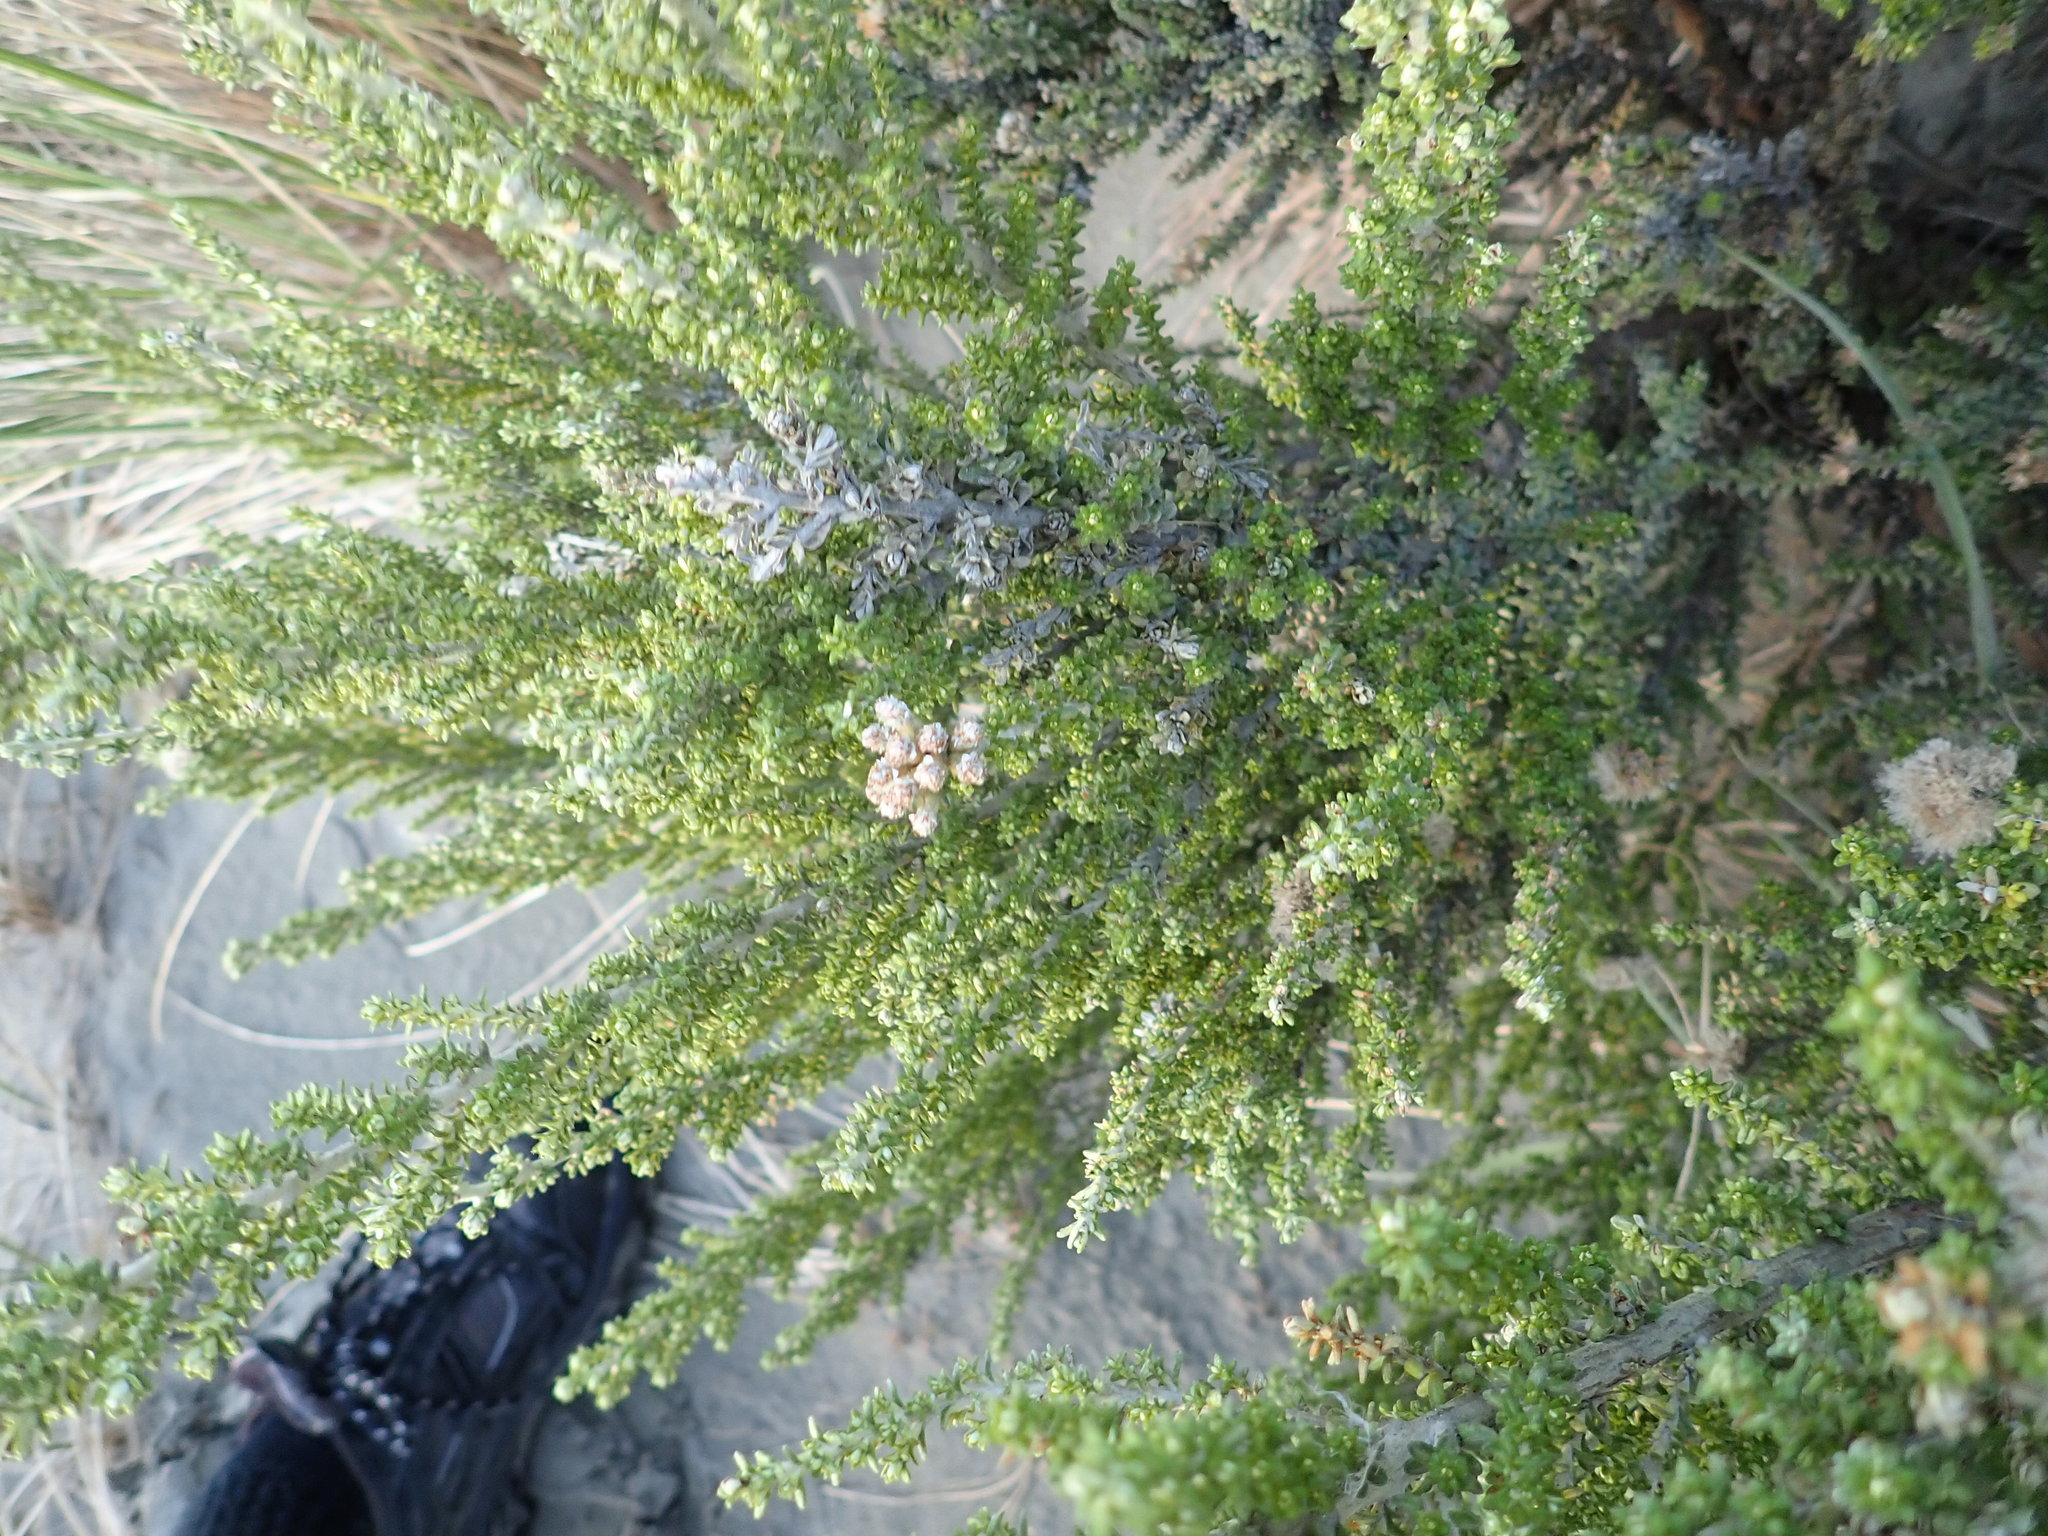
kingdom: Plantae
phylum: Tracheophyta
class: Magnoliopsida
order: Asterales
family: Asteraceae
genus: Ozothamnus
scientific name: Ozothamnus leptophyllus
